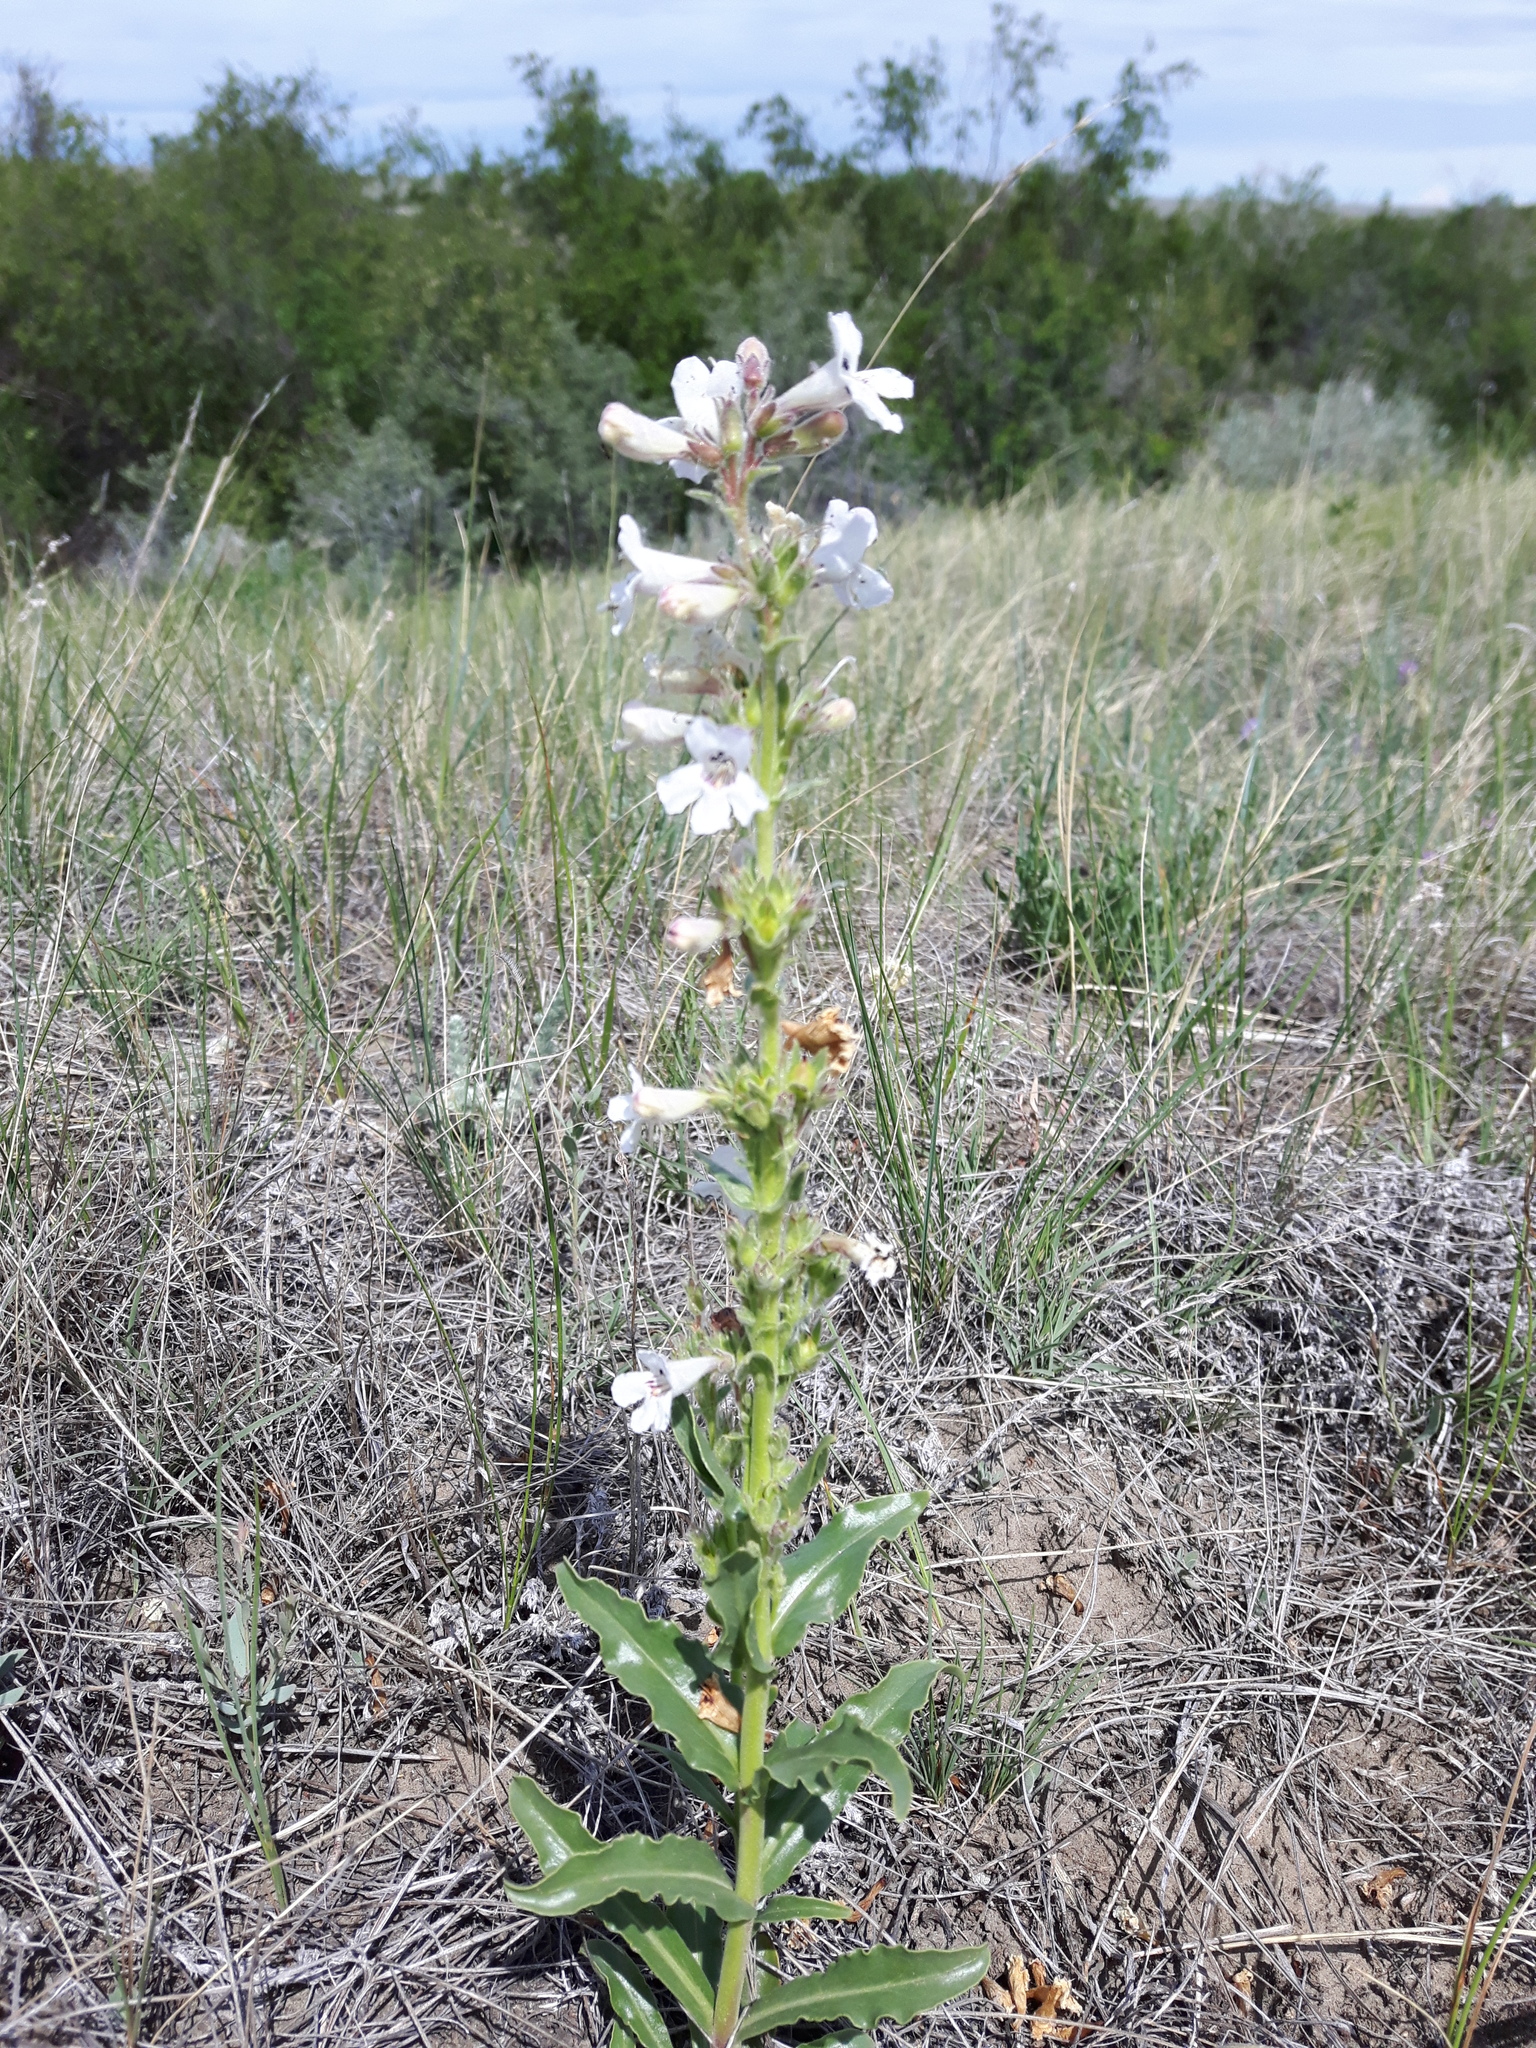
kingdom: Plantae
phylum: Tracheophyta
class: Magnoliopsida
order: Lamiales
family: Plantaginaceae
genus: Penstemon
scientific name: Penstemon albidus
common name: White beardtongue
